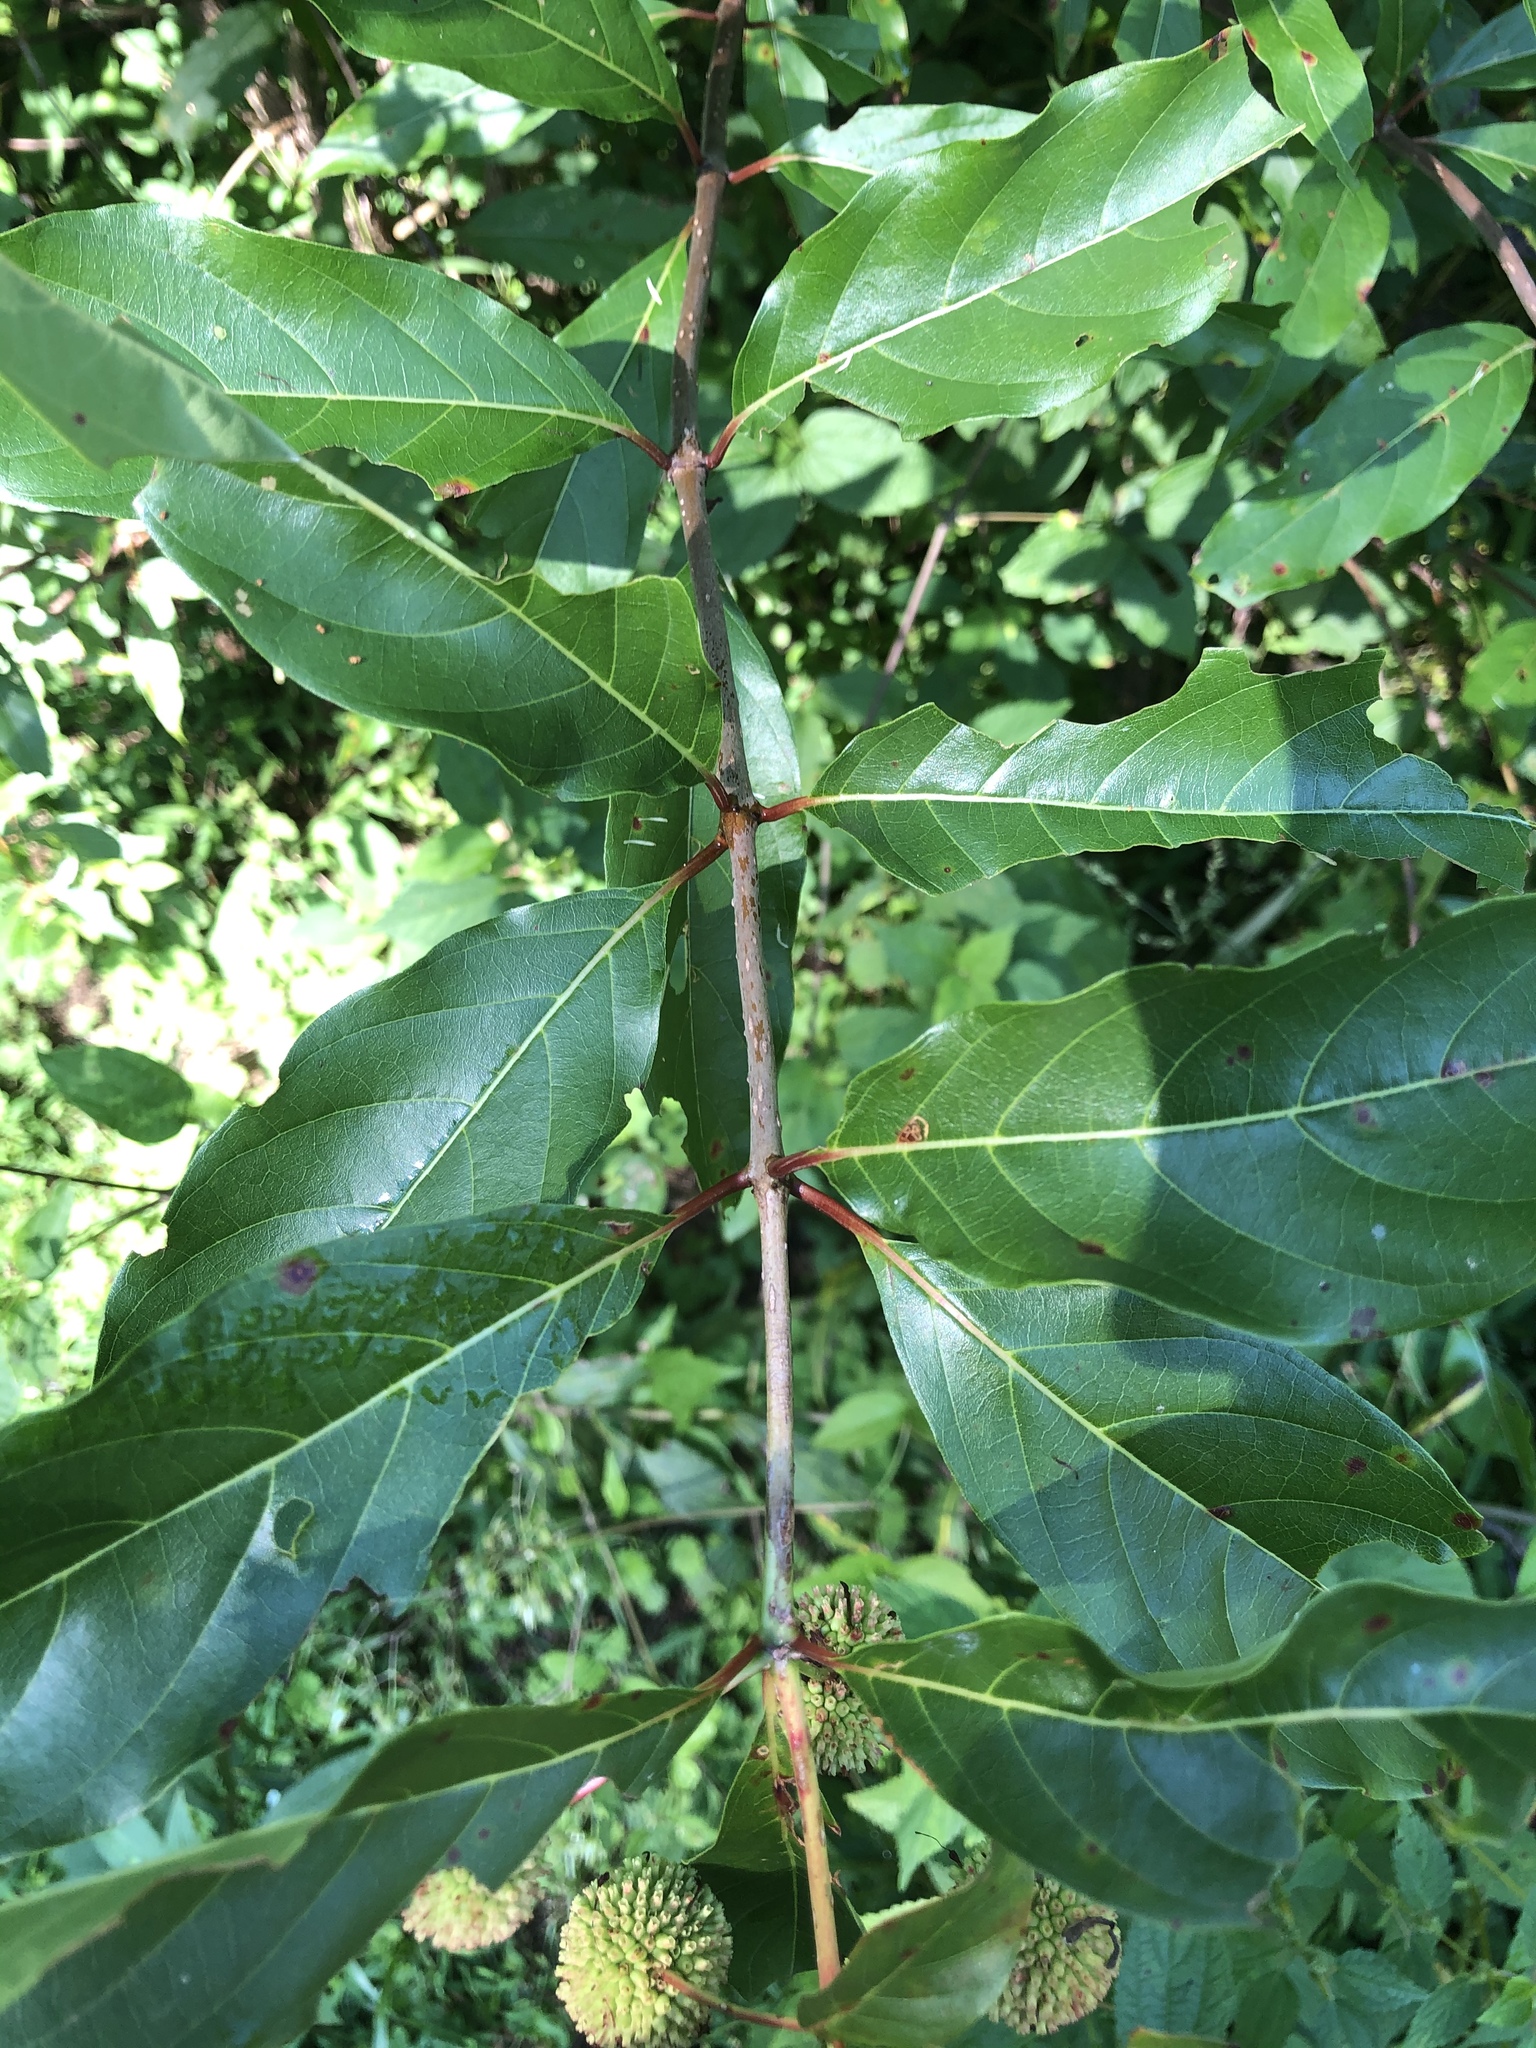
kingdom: Plantae
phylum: Tracheophyta
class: Magnoliopsida
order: Gentianales
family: Rubiaceae
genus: Cephalanthus
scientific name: Cephalanthus occidentalis
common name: Button-willow
